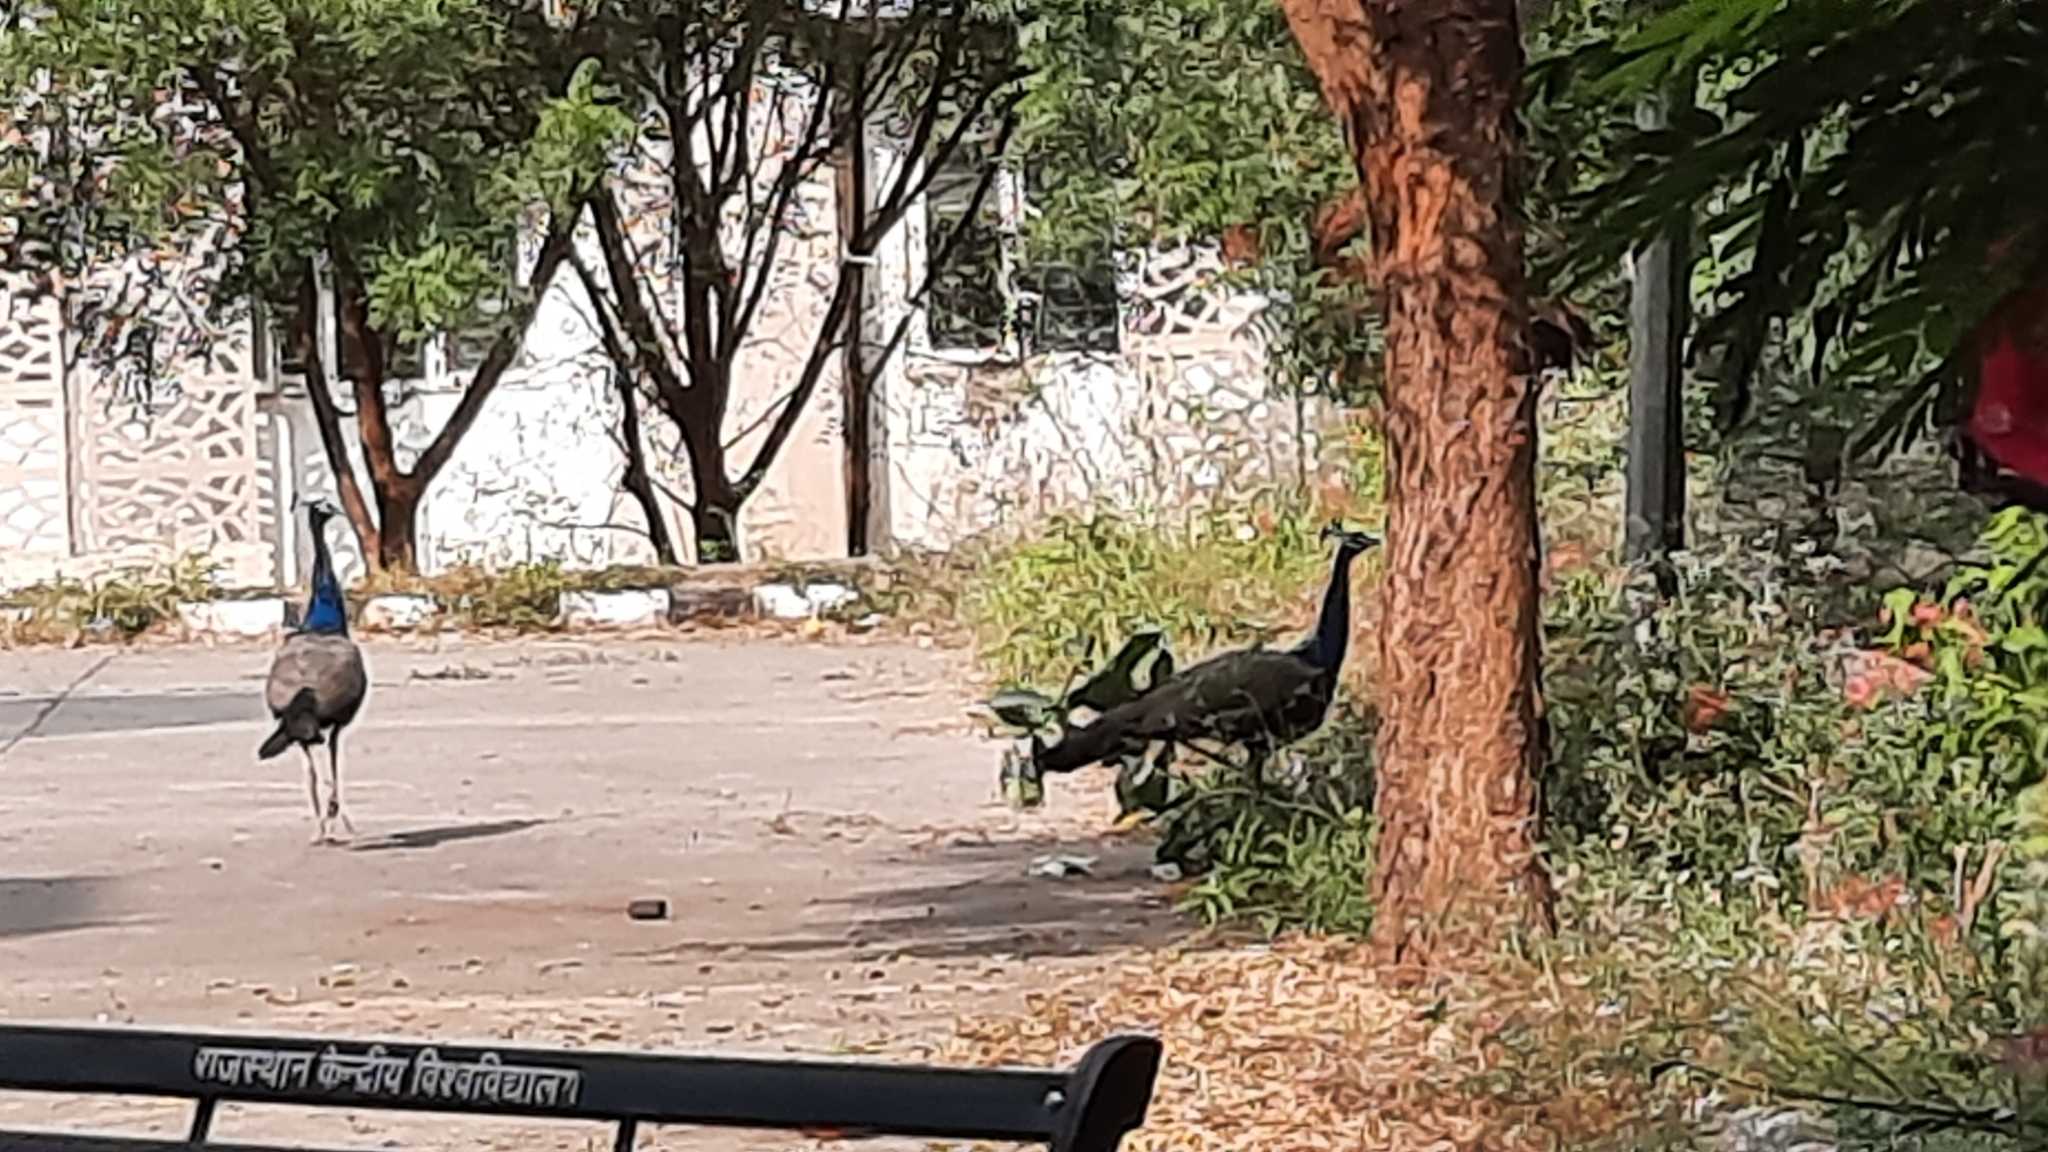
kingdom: Animalia
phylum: Chordata
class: Aves
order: Galliformes
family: Phasianidae
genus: Pavo
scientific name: Pavo cristatus
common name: Indian peafowl
